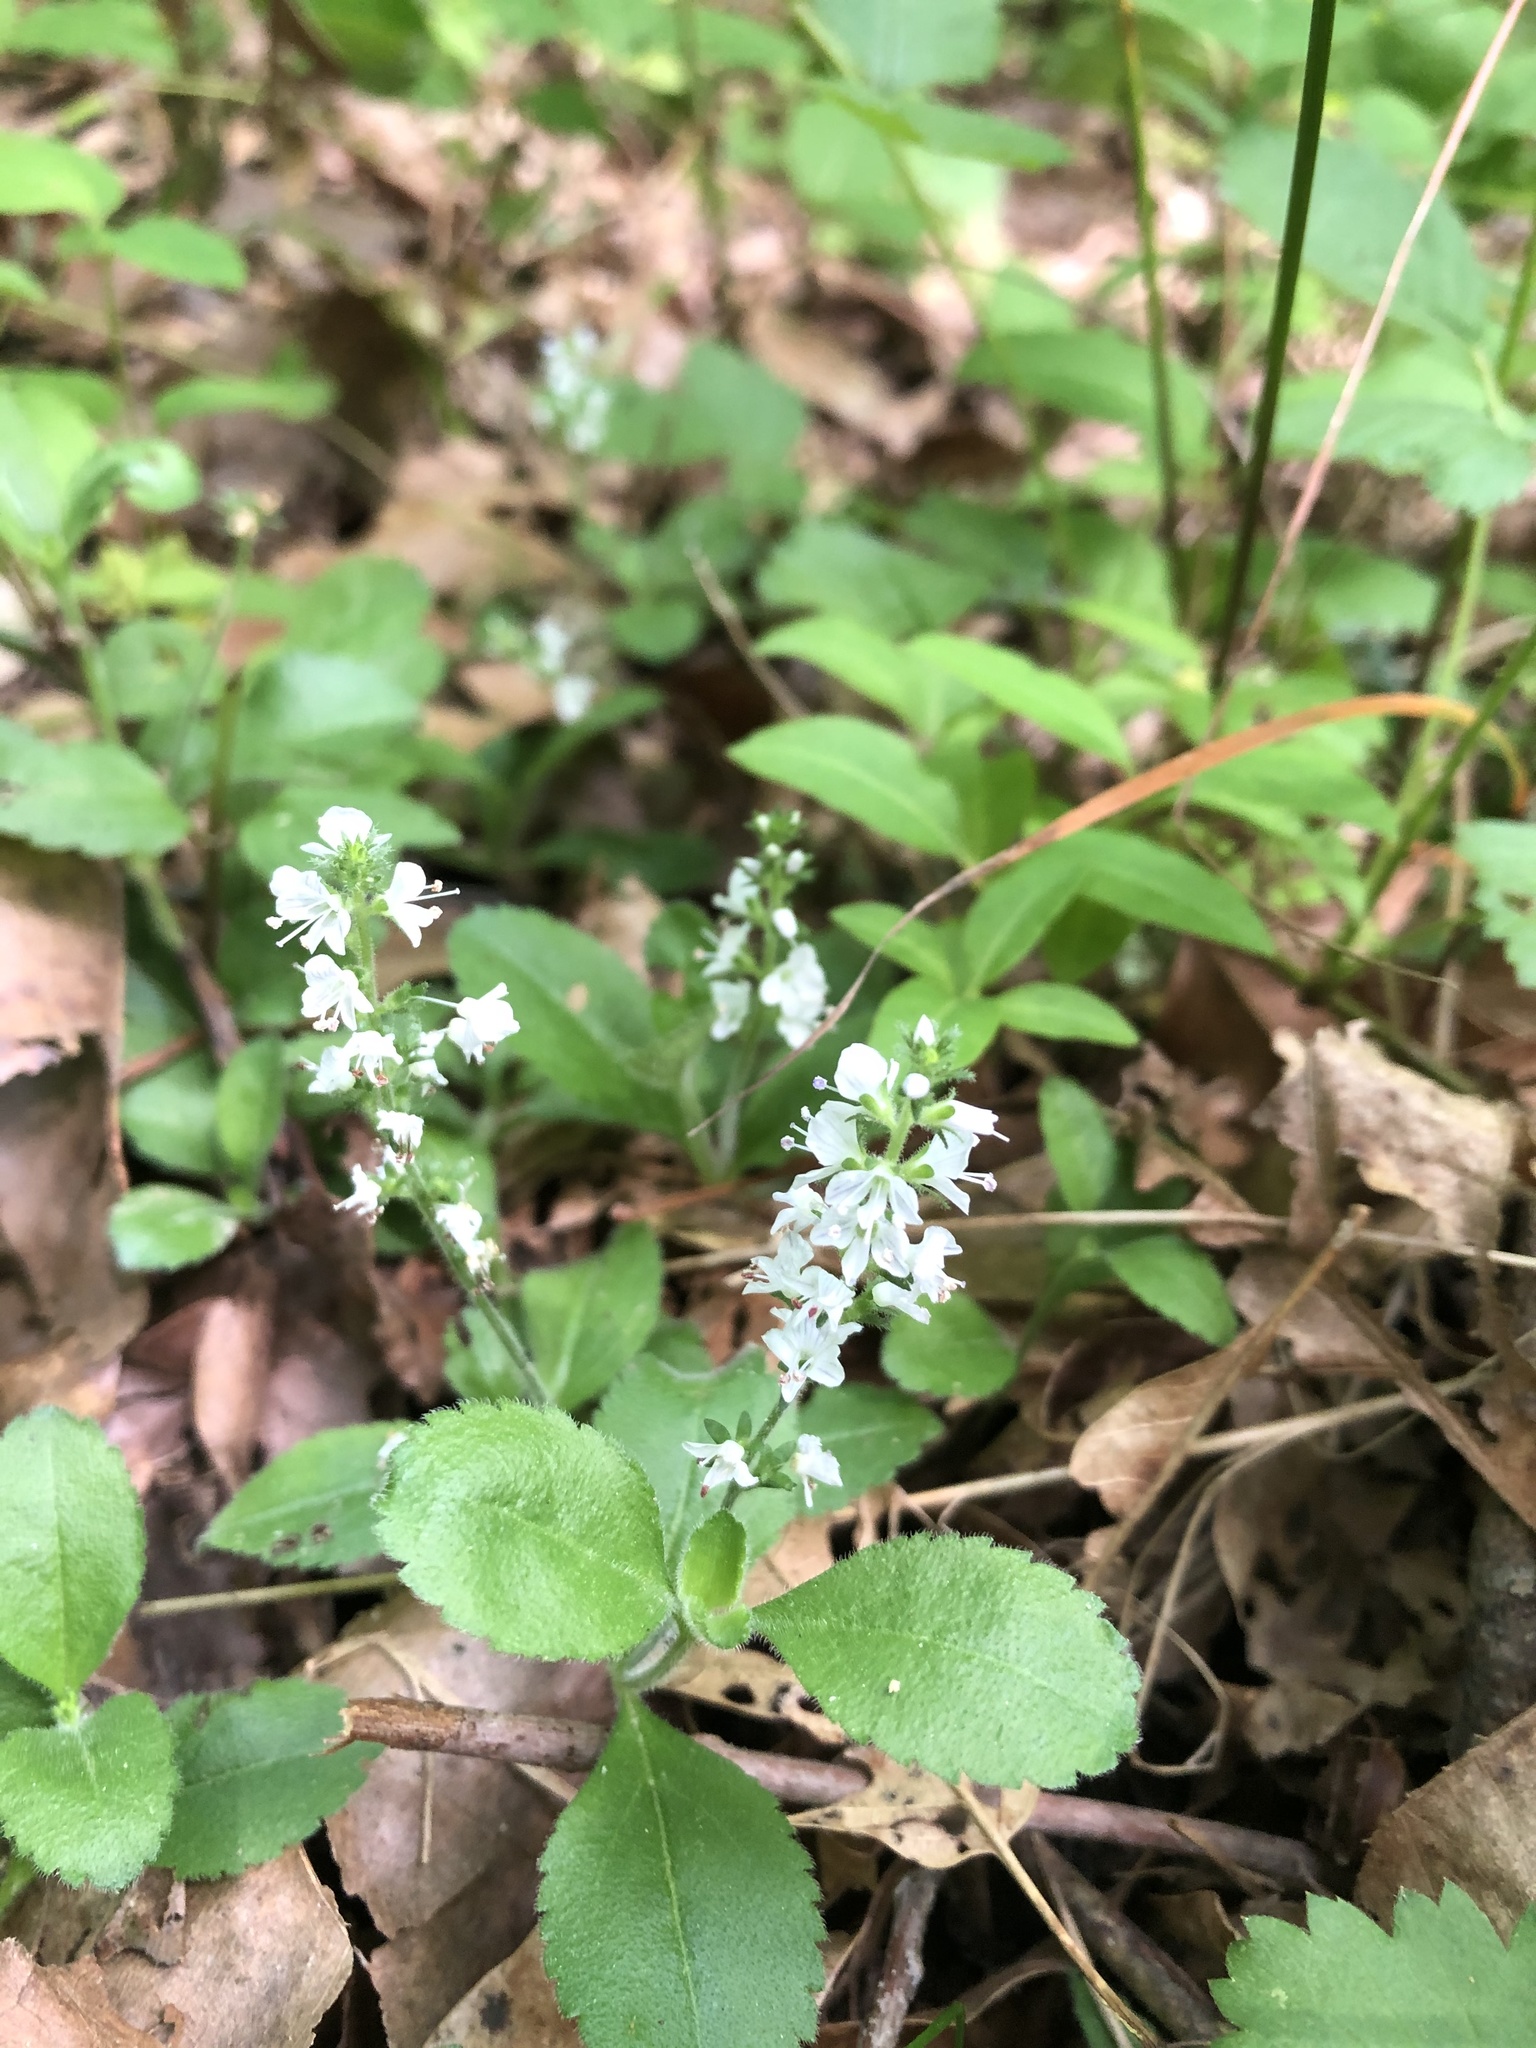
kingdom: Plantae
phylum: Tracheophyta
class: Magnoliopsida
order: Lamiales
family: Plantaginaceae
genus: Veronica
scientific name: Veronica officinalis
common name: Common speedwell
